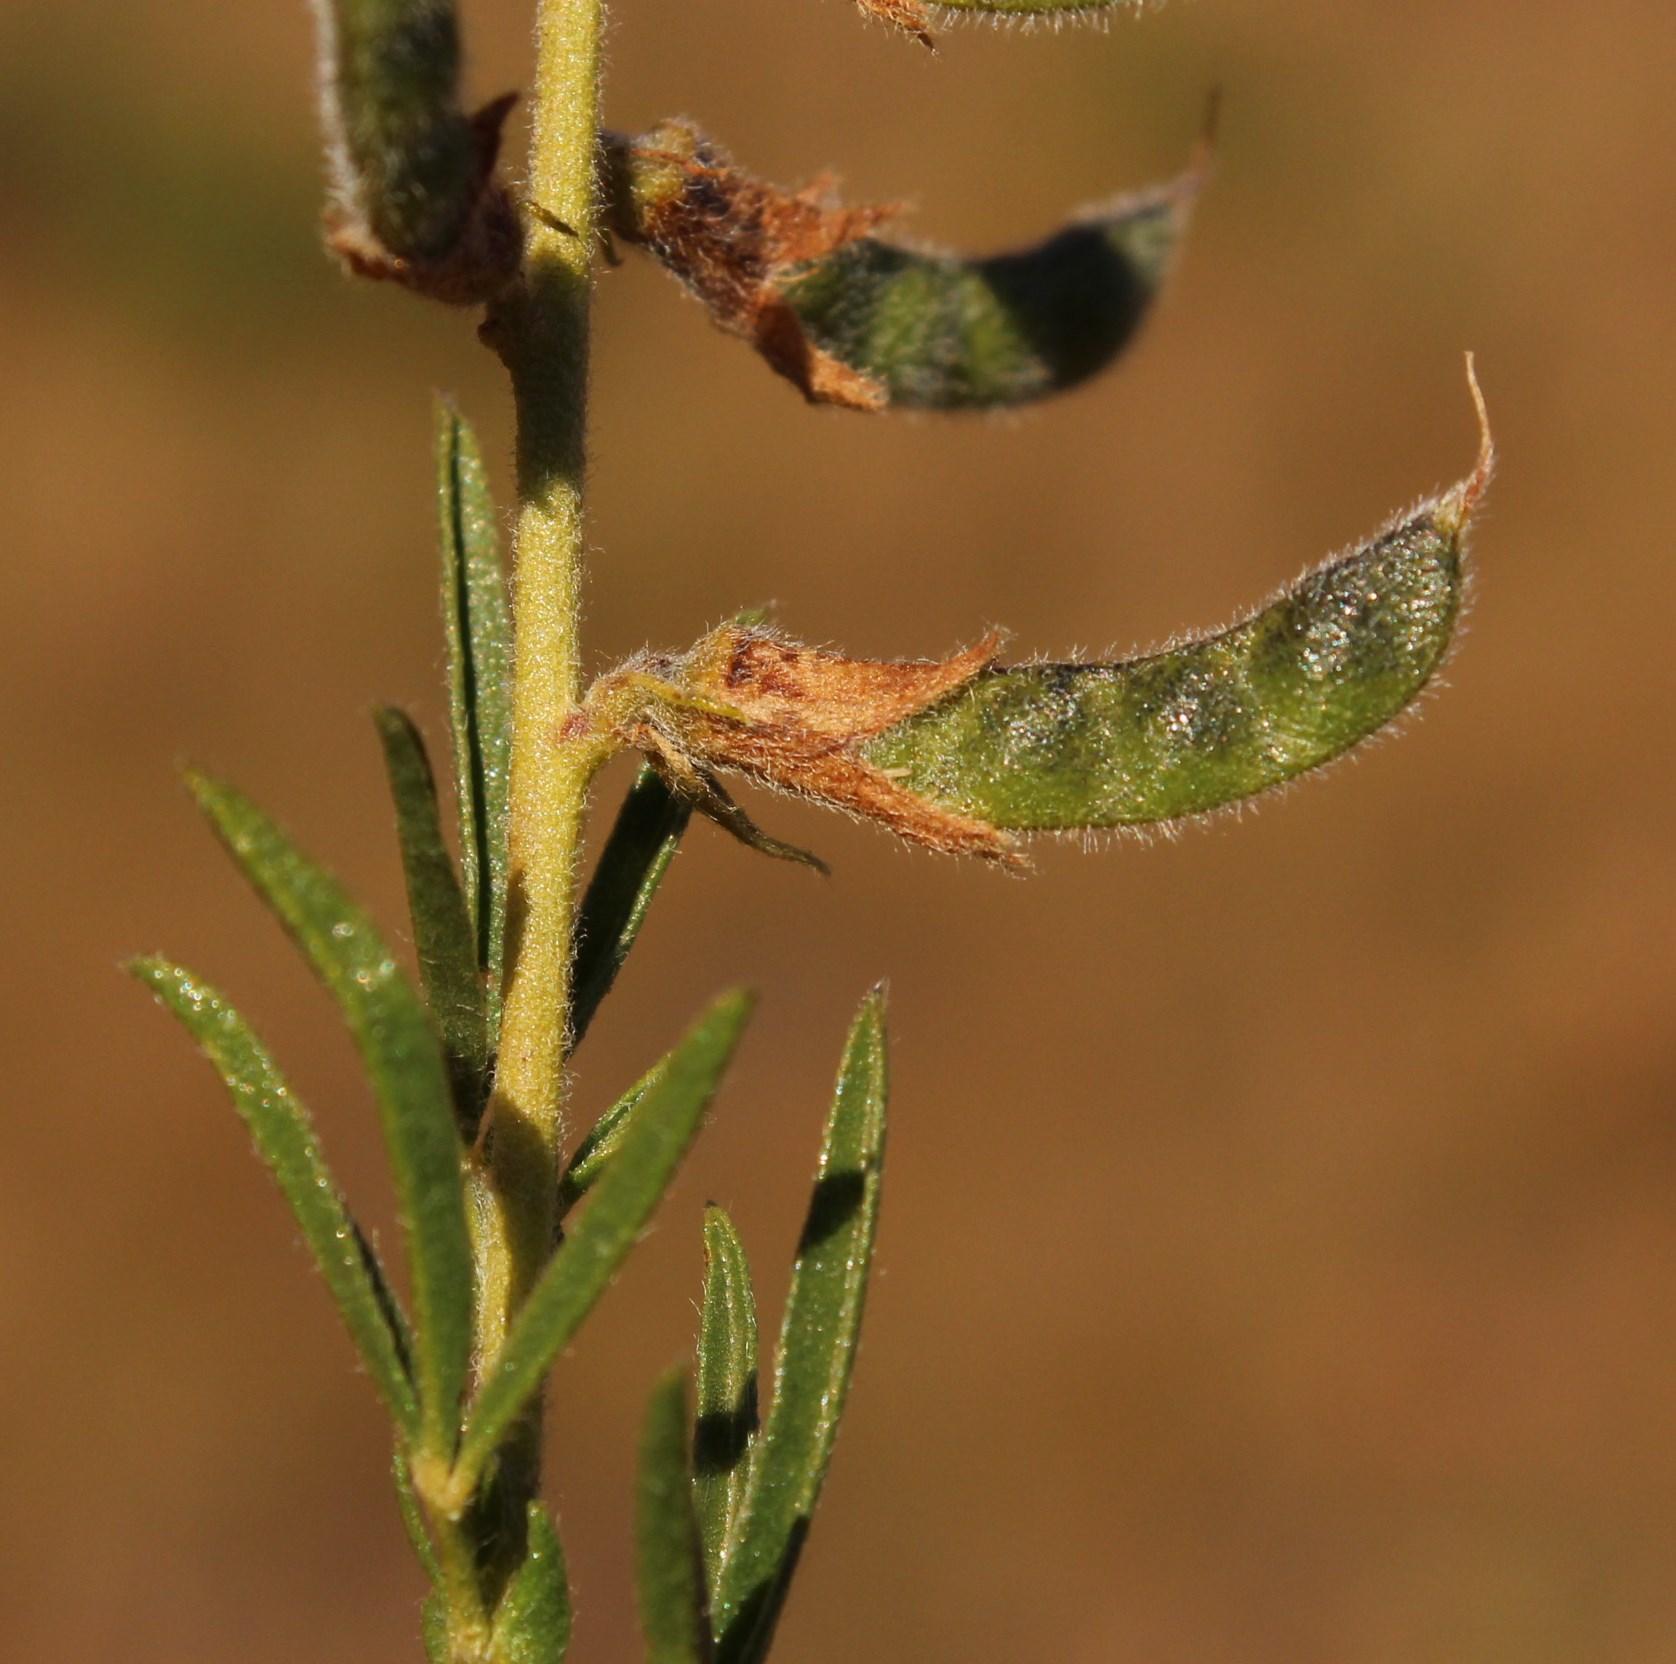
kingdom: Plantae
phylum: Tracheophyta
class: Magnoliopsida
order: Fabales
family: Fabaceae
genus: Melolobium
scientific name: Melolobium alpinum
